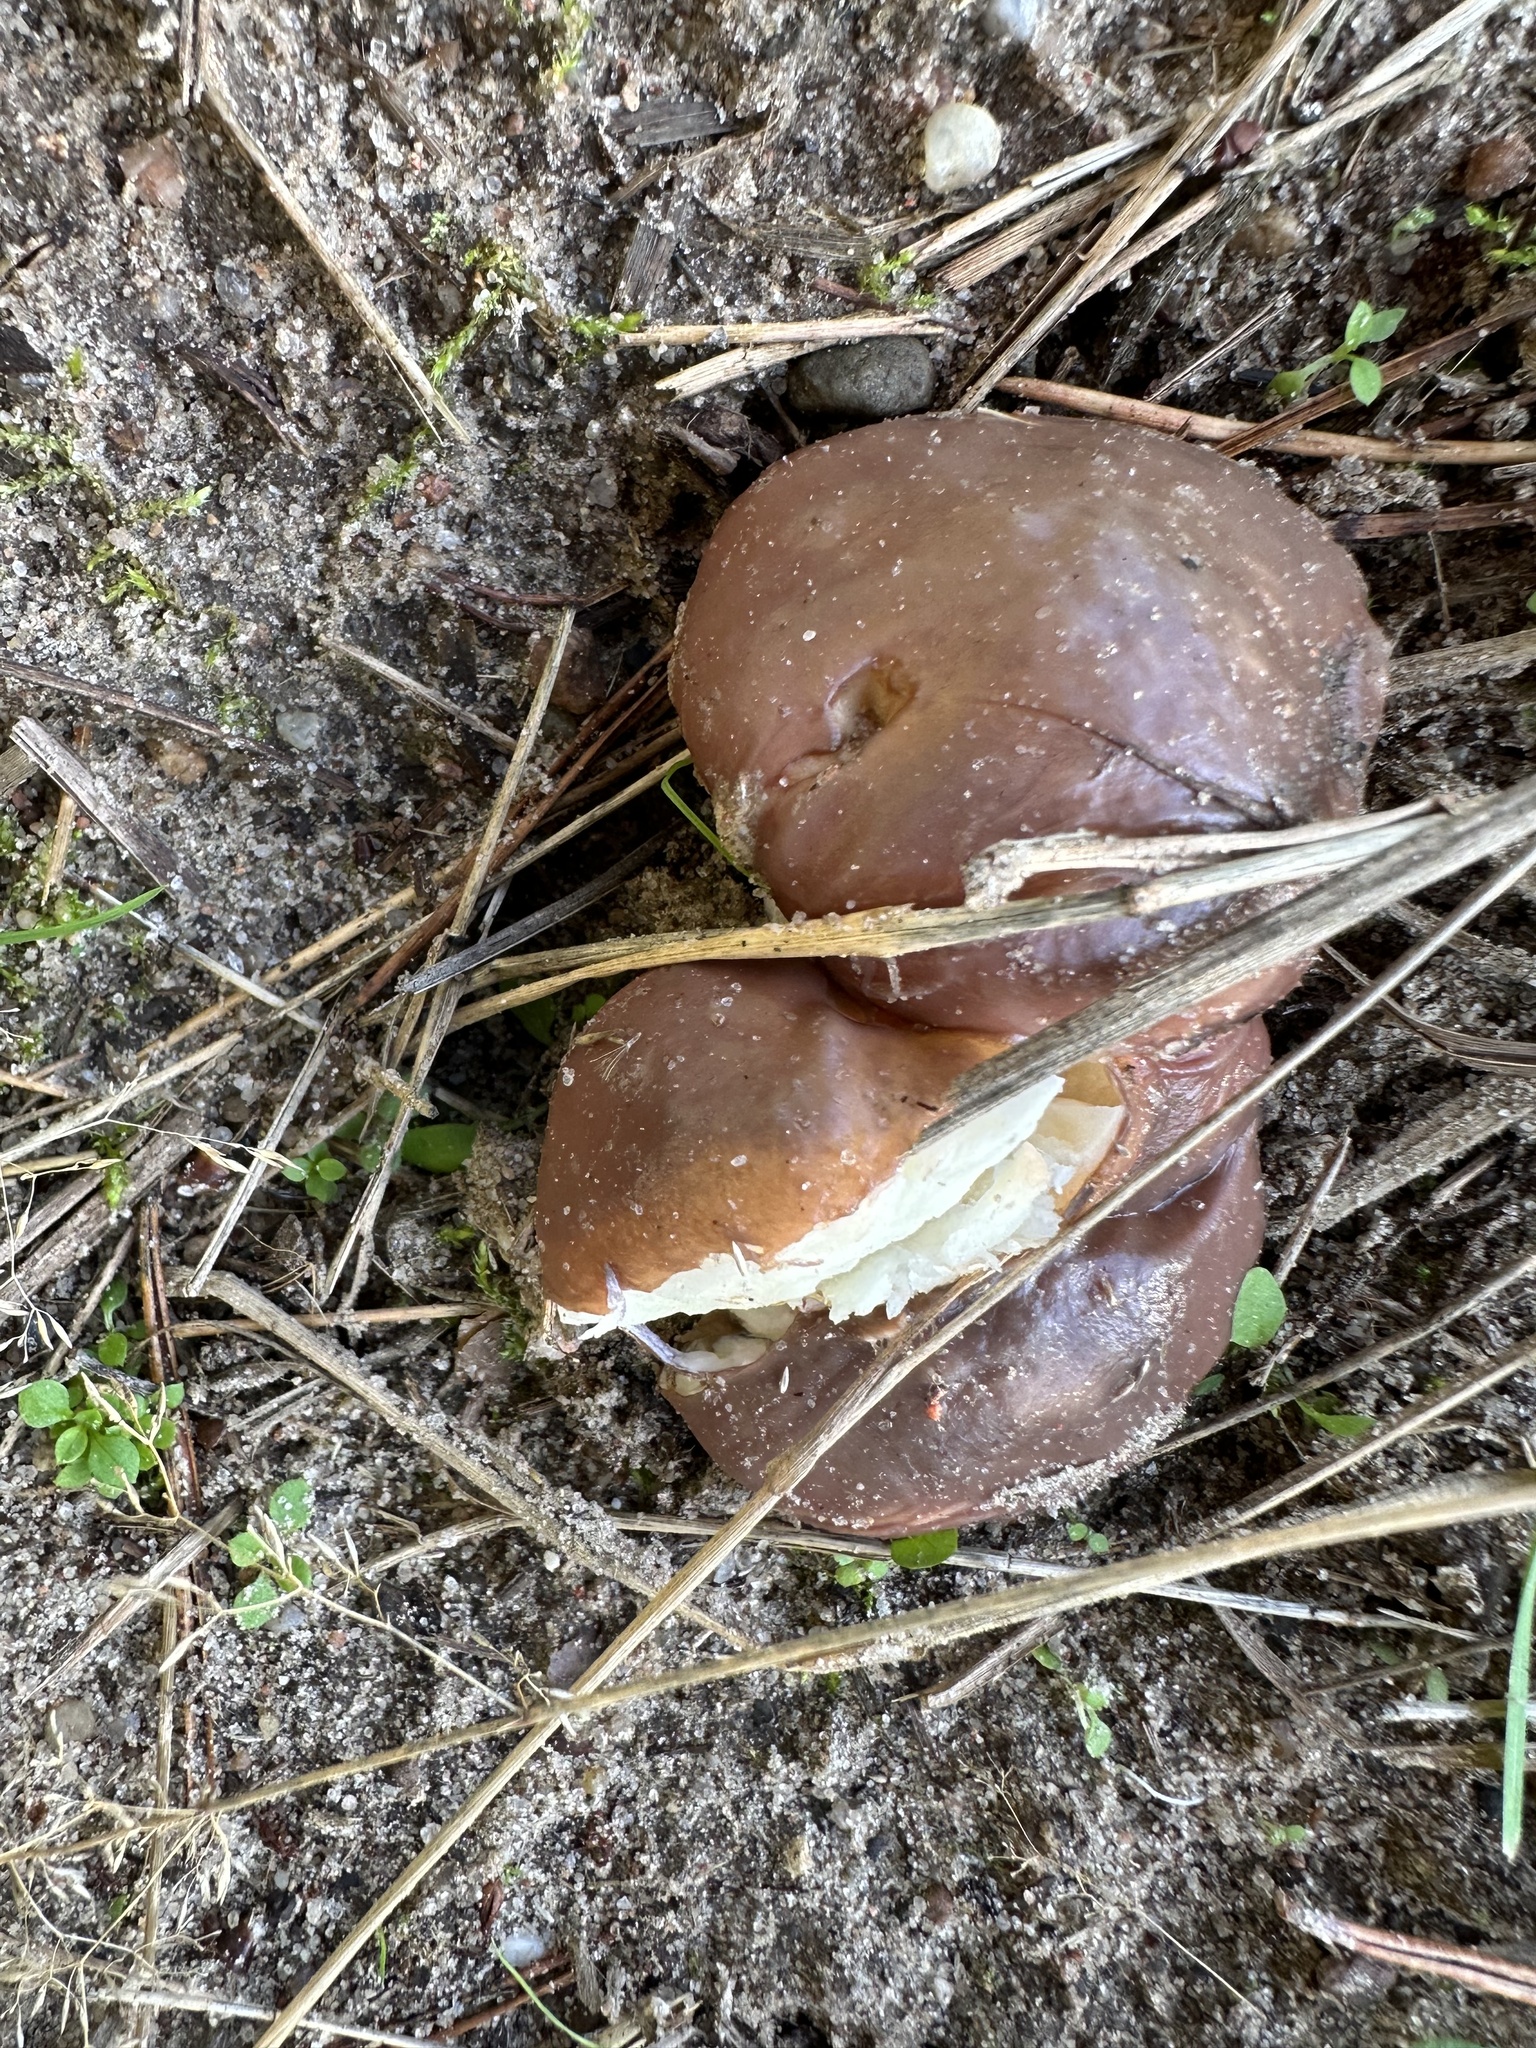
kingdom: Fungi
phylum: Basidiomycota
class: Agaricomycetes
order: Boletales
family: Suillaceae
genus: Suillus
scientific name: Suillus luteus
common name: Slippery jack
